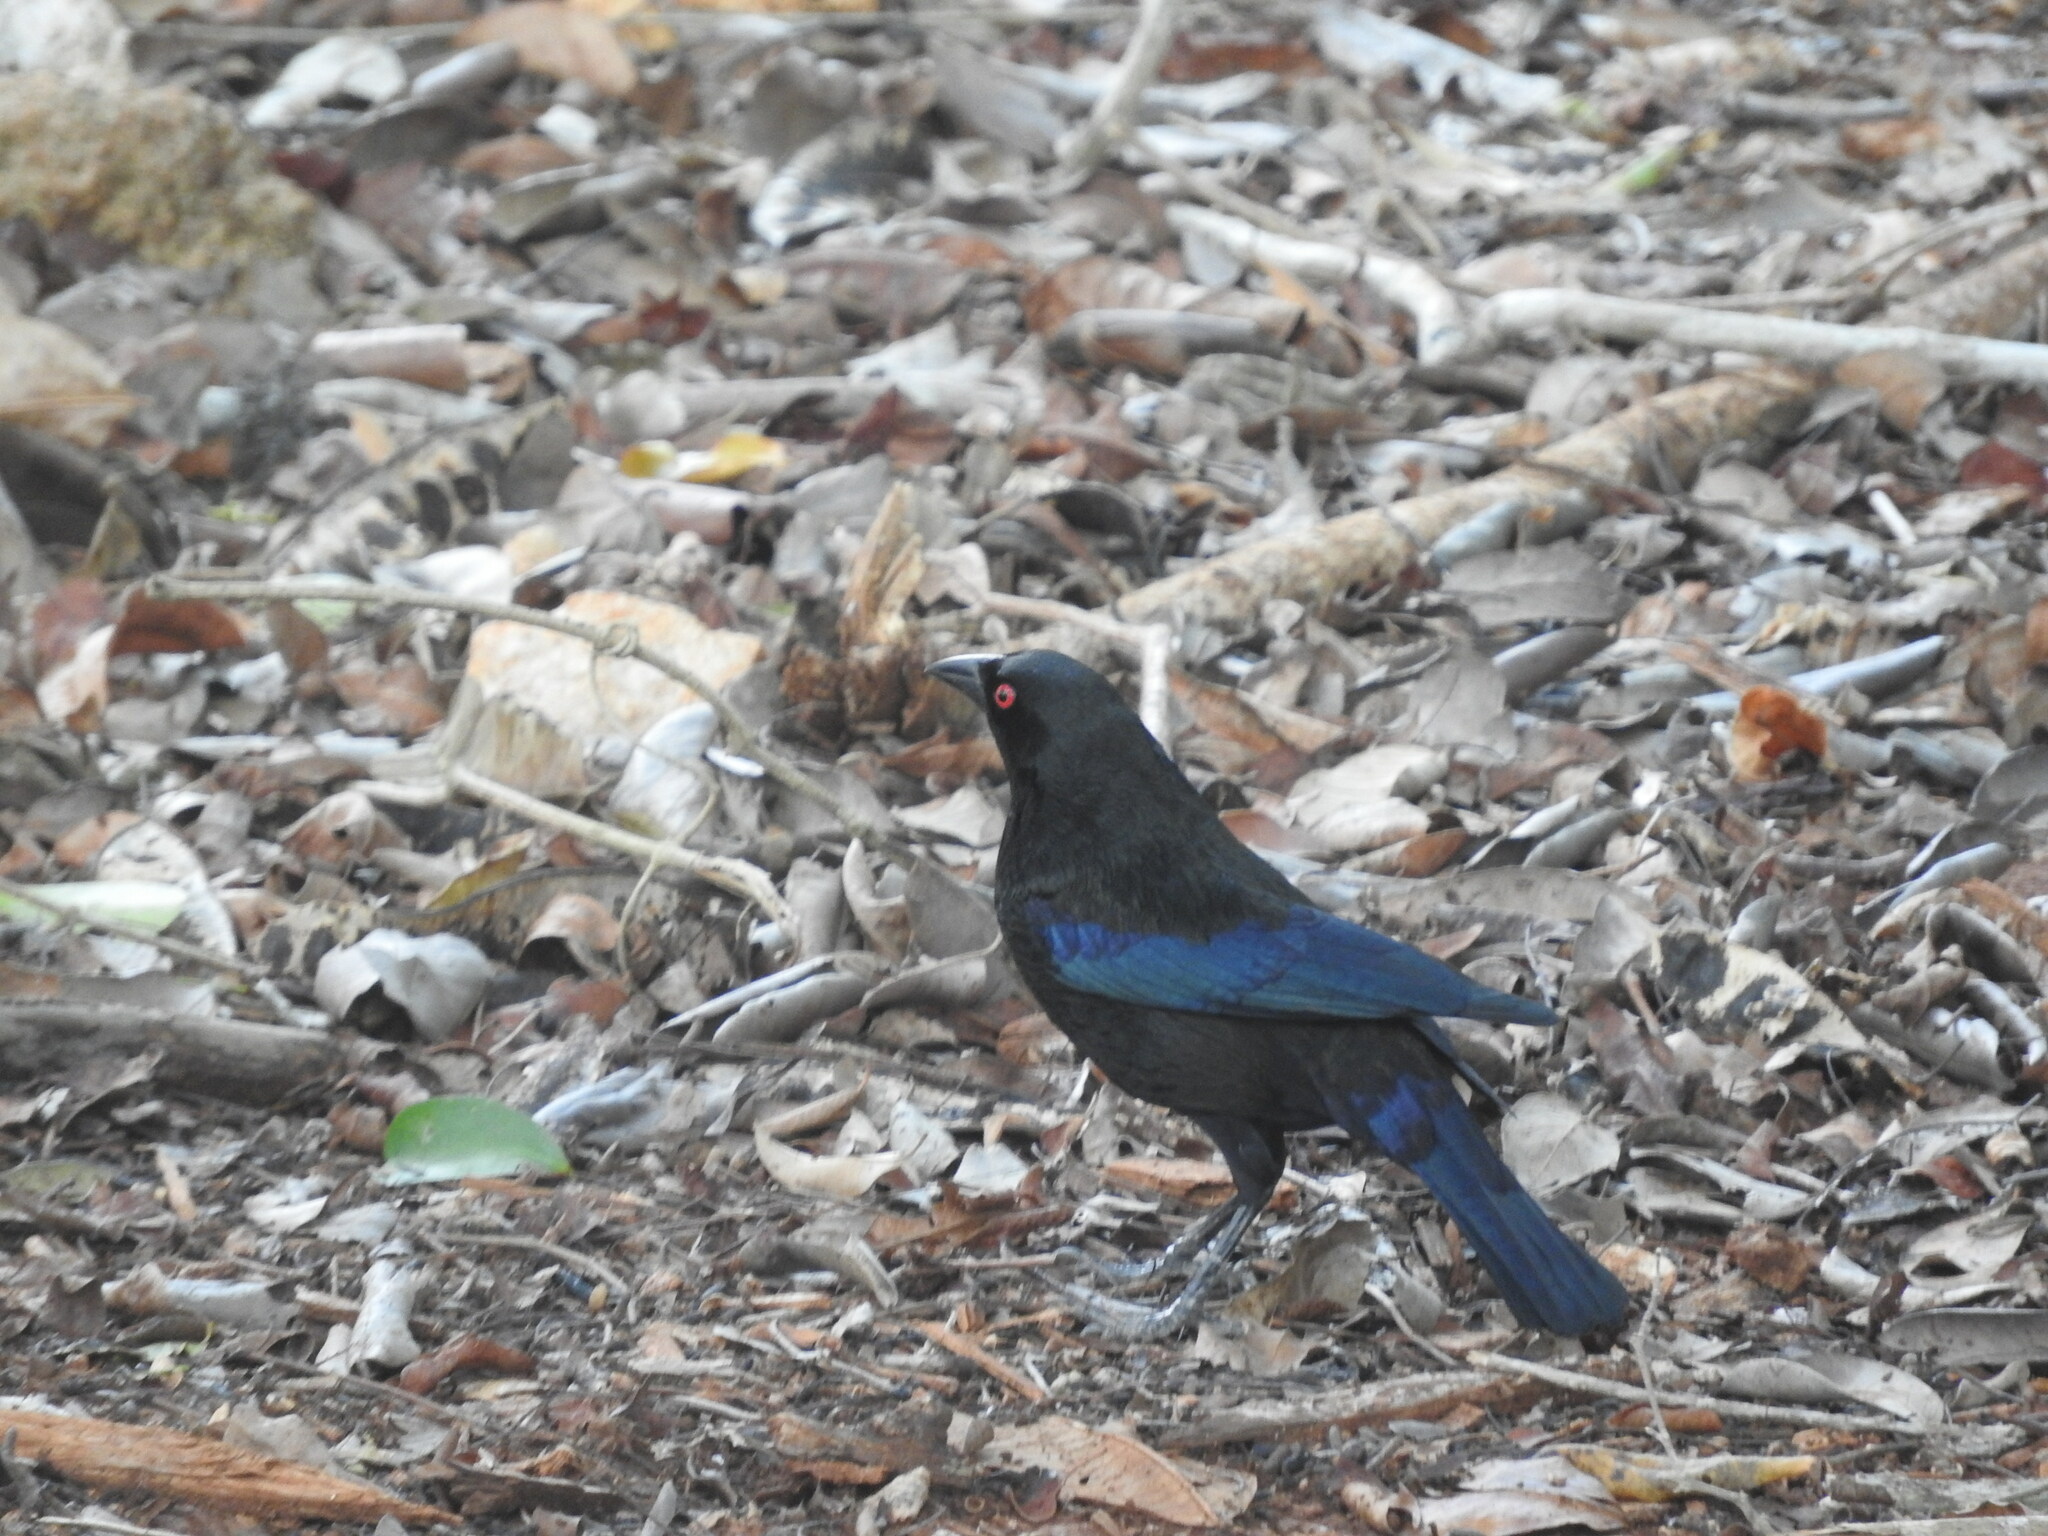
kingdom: Animalia
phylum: Chordata
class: Aves
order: Passeriformes
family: Icteridae
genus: Molothrus
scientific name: Molothrus aeneus
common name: Bronzed cowbird
